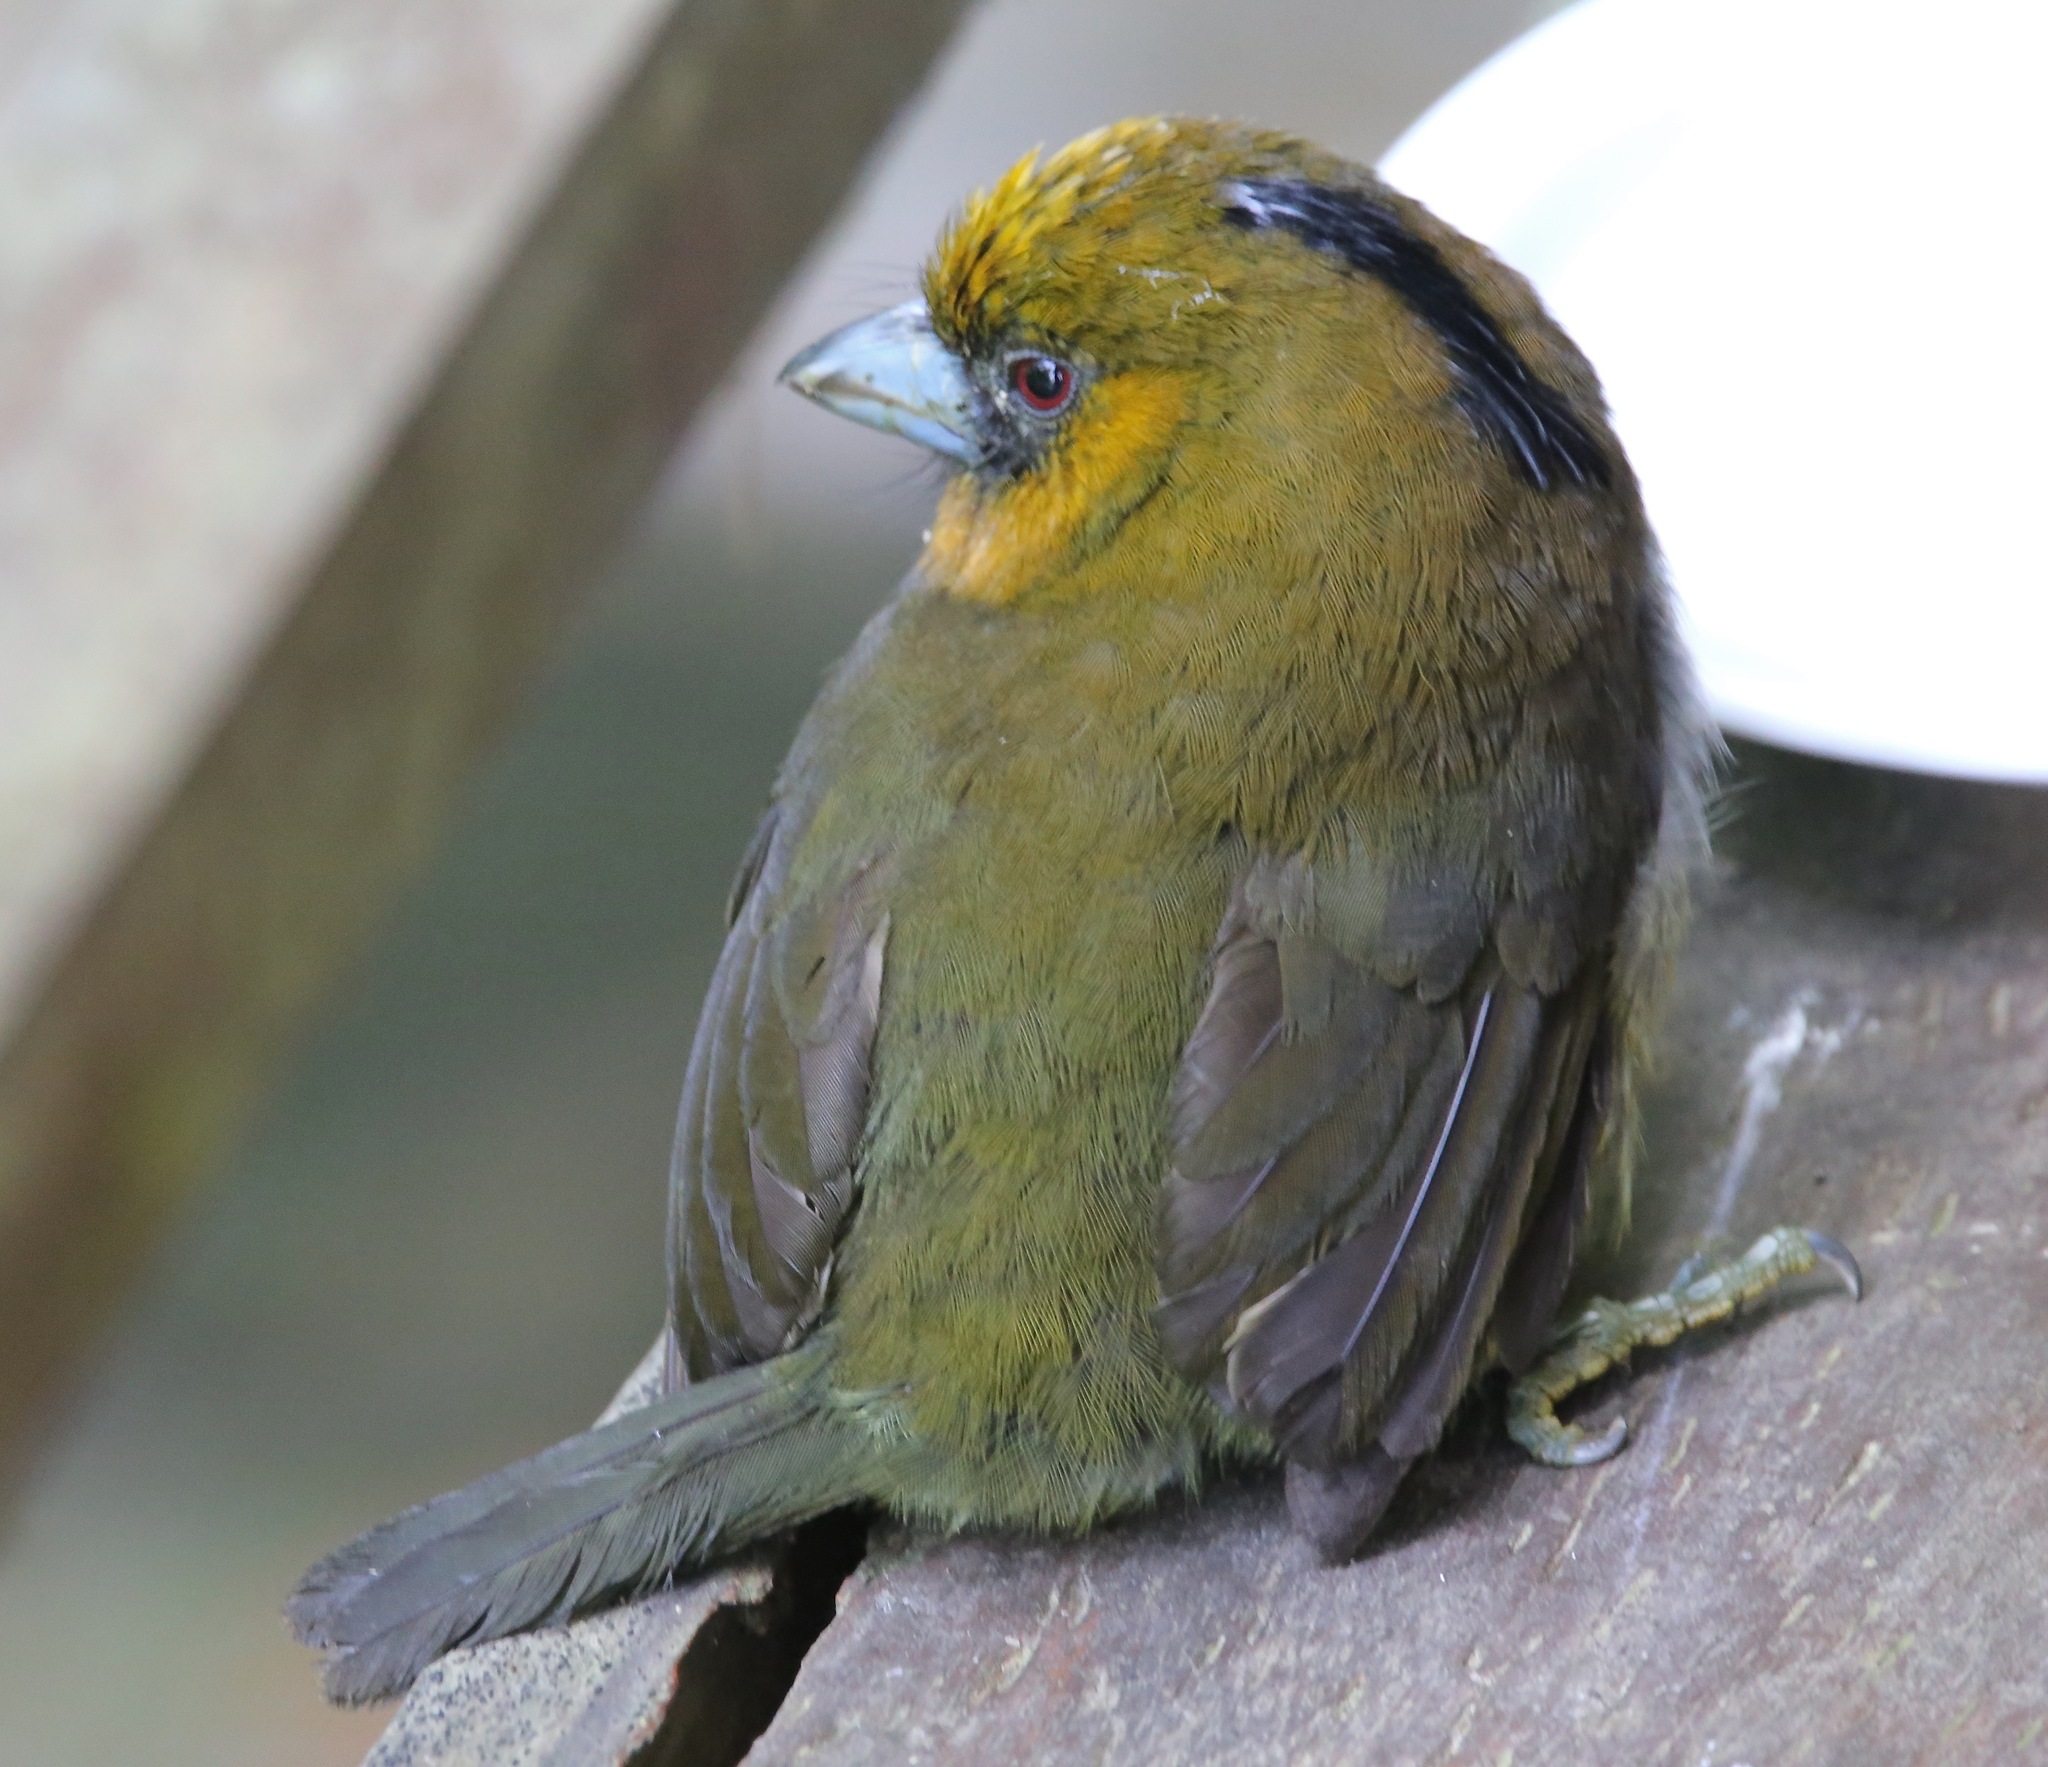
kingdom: Animalia
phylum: Chordata
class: Aves
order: Piciformes
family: Semnornithidae
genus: Semnornis
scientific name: Semnornis frantzii
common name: Prong-billed barbet
